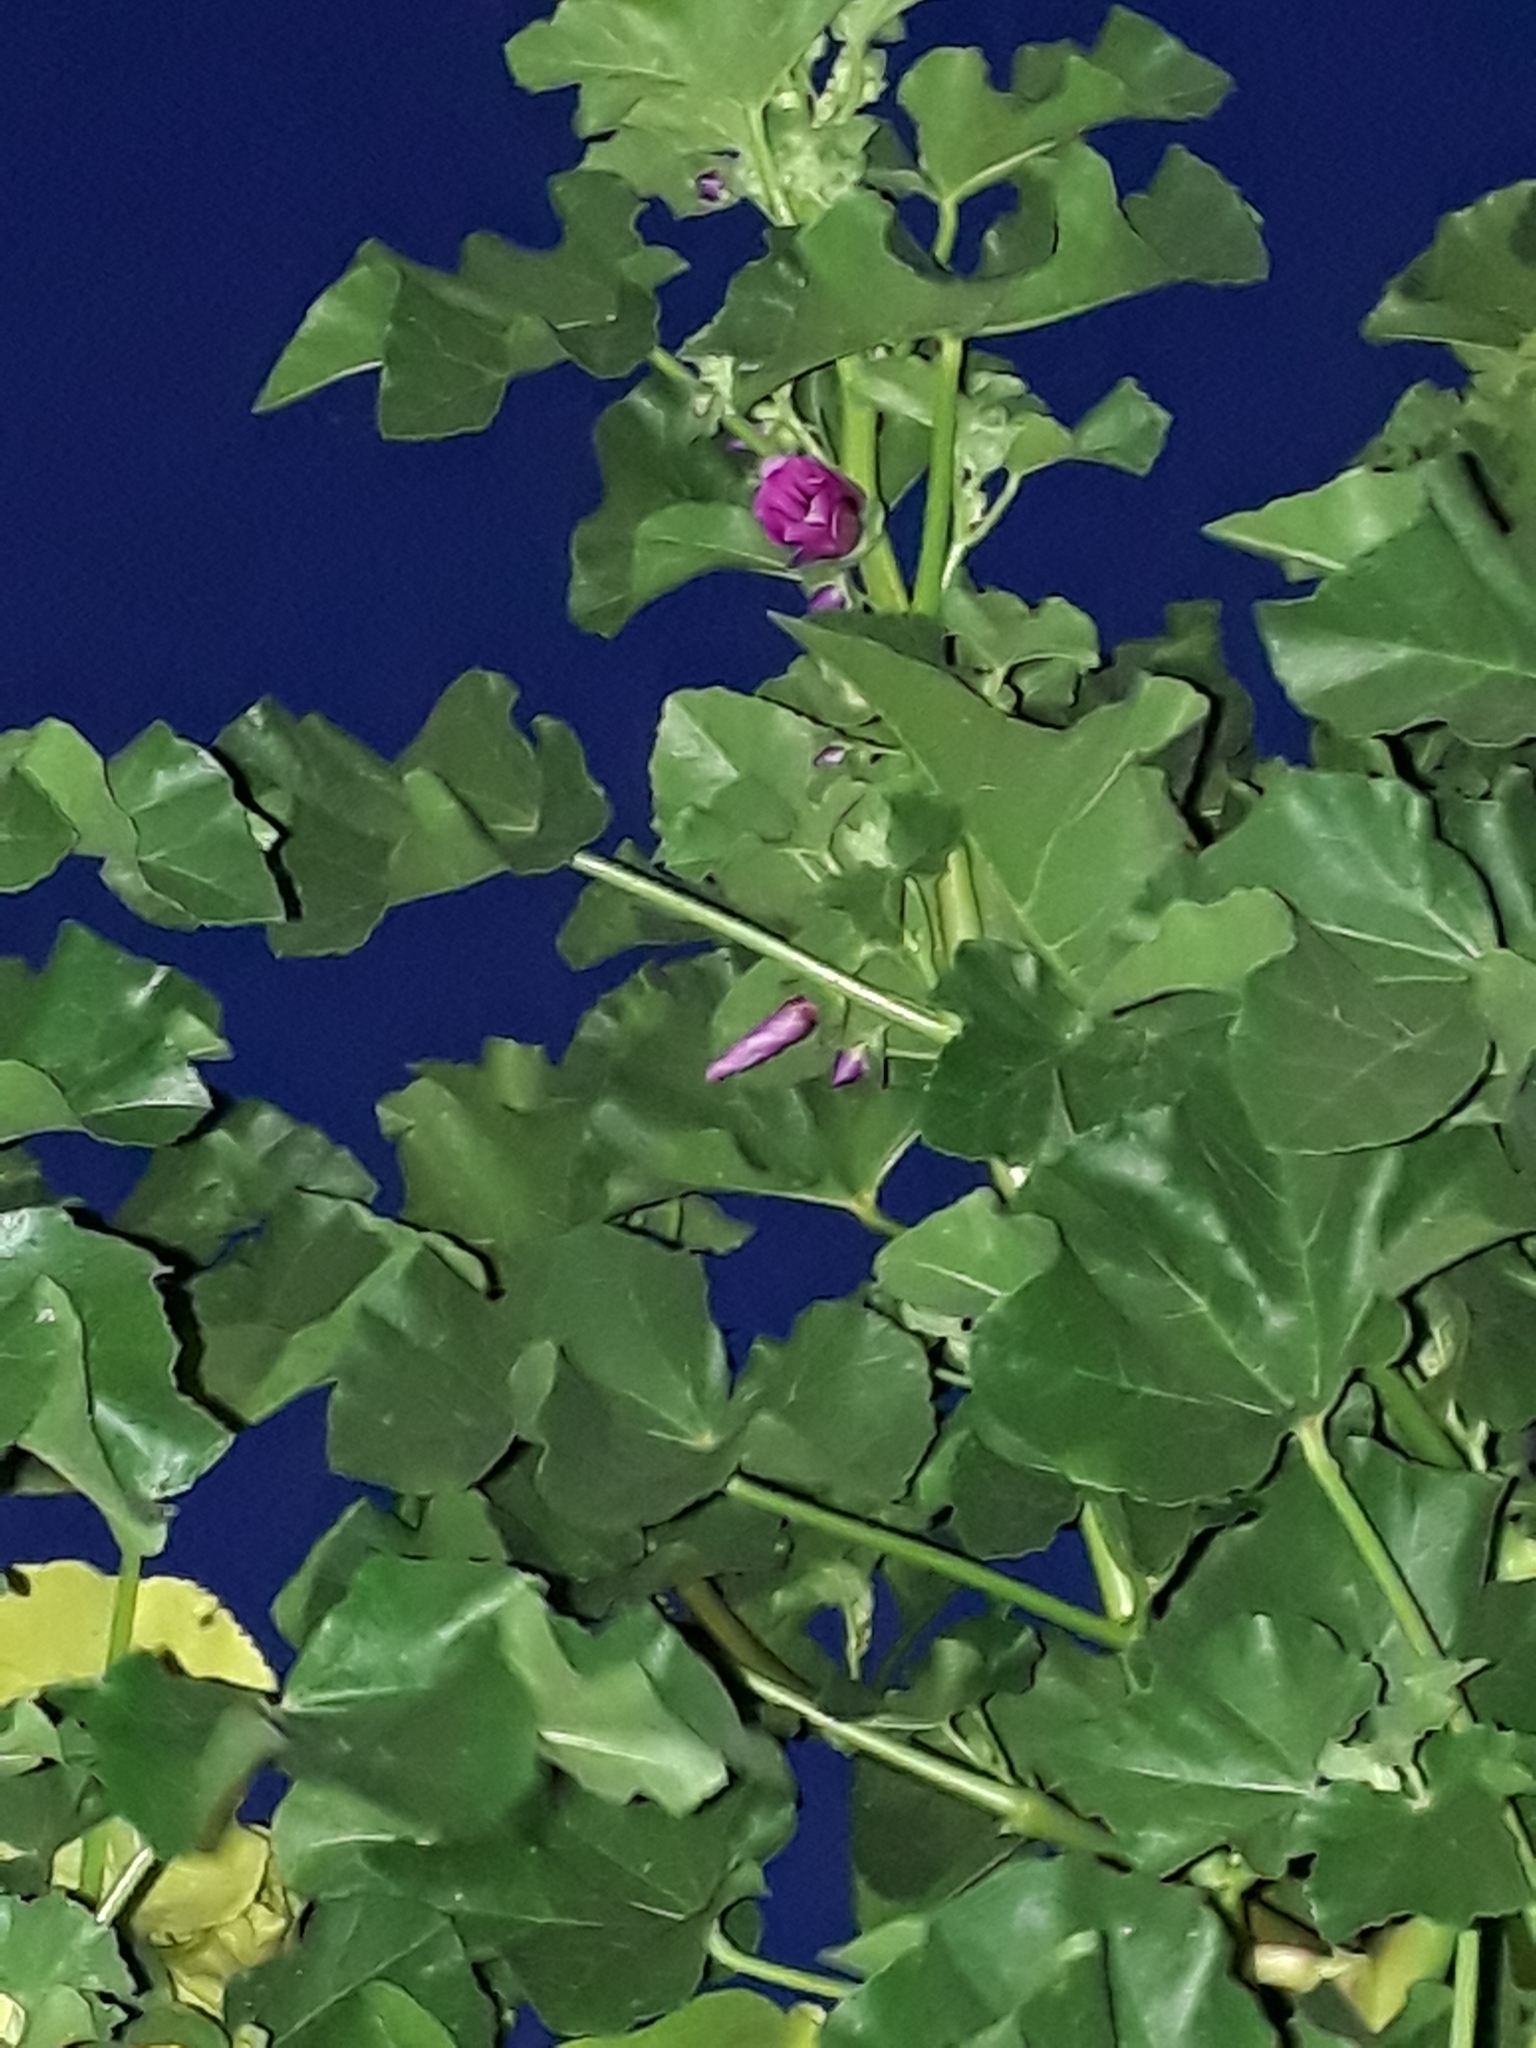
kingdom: Plantae
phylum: Tracheophyta
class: Magnoliopsida
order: Malvales
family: Malvaceae
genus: Malva
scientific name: Malva arborea
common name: Tree mallow
